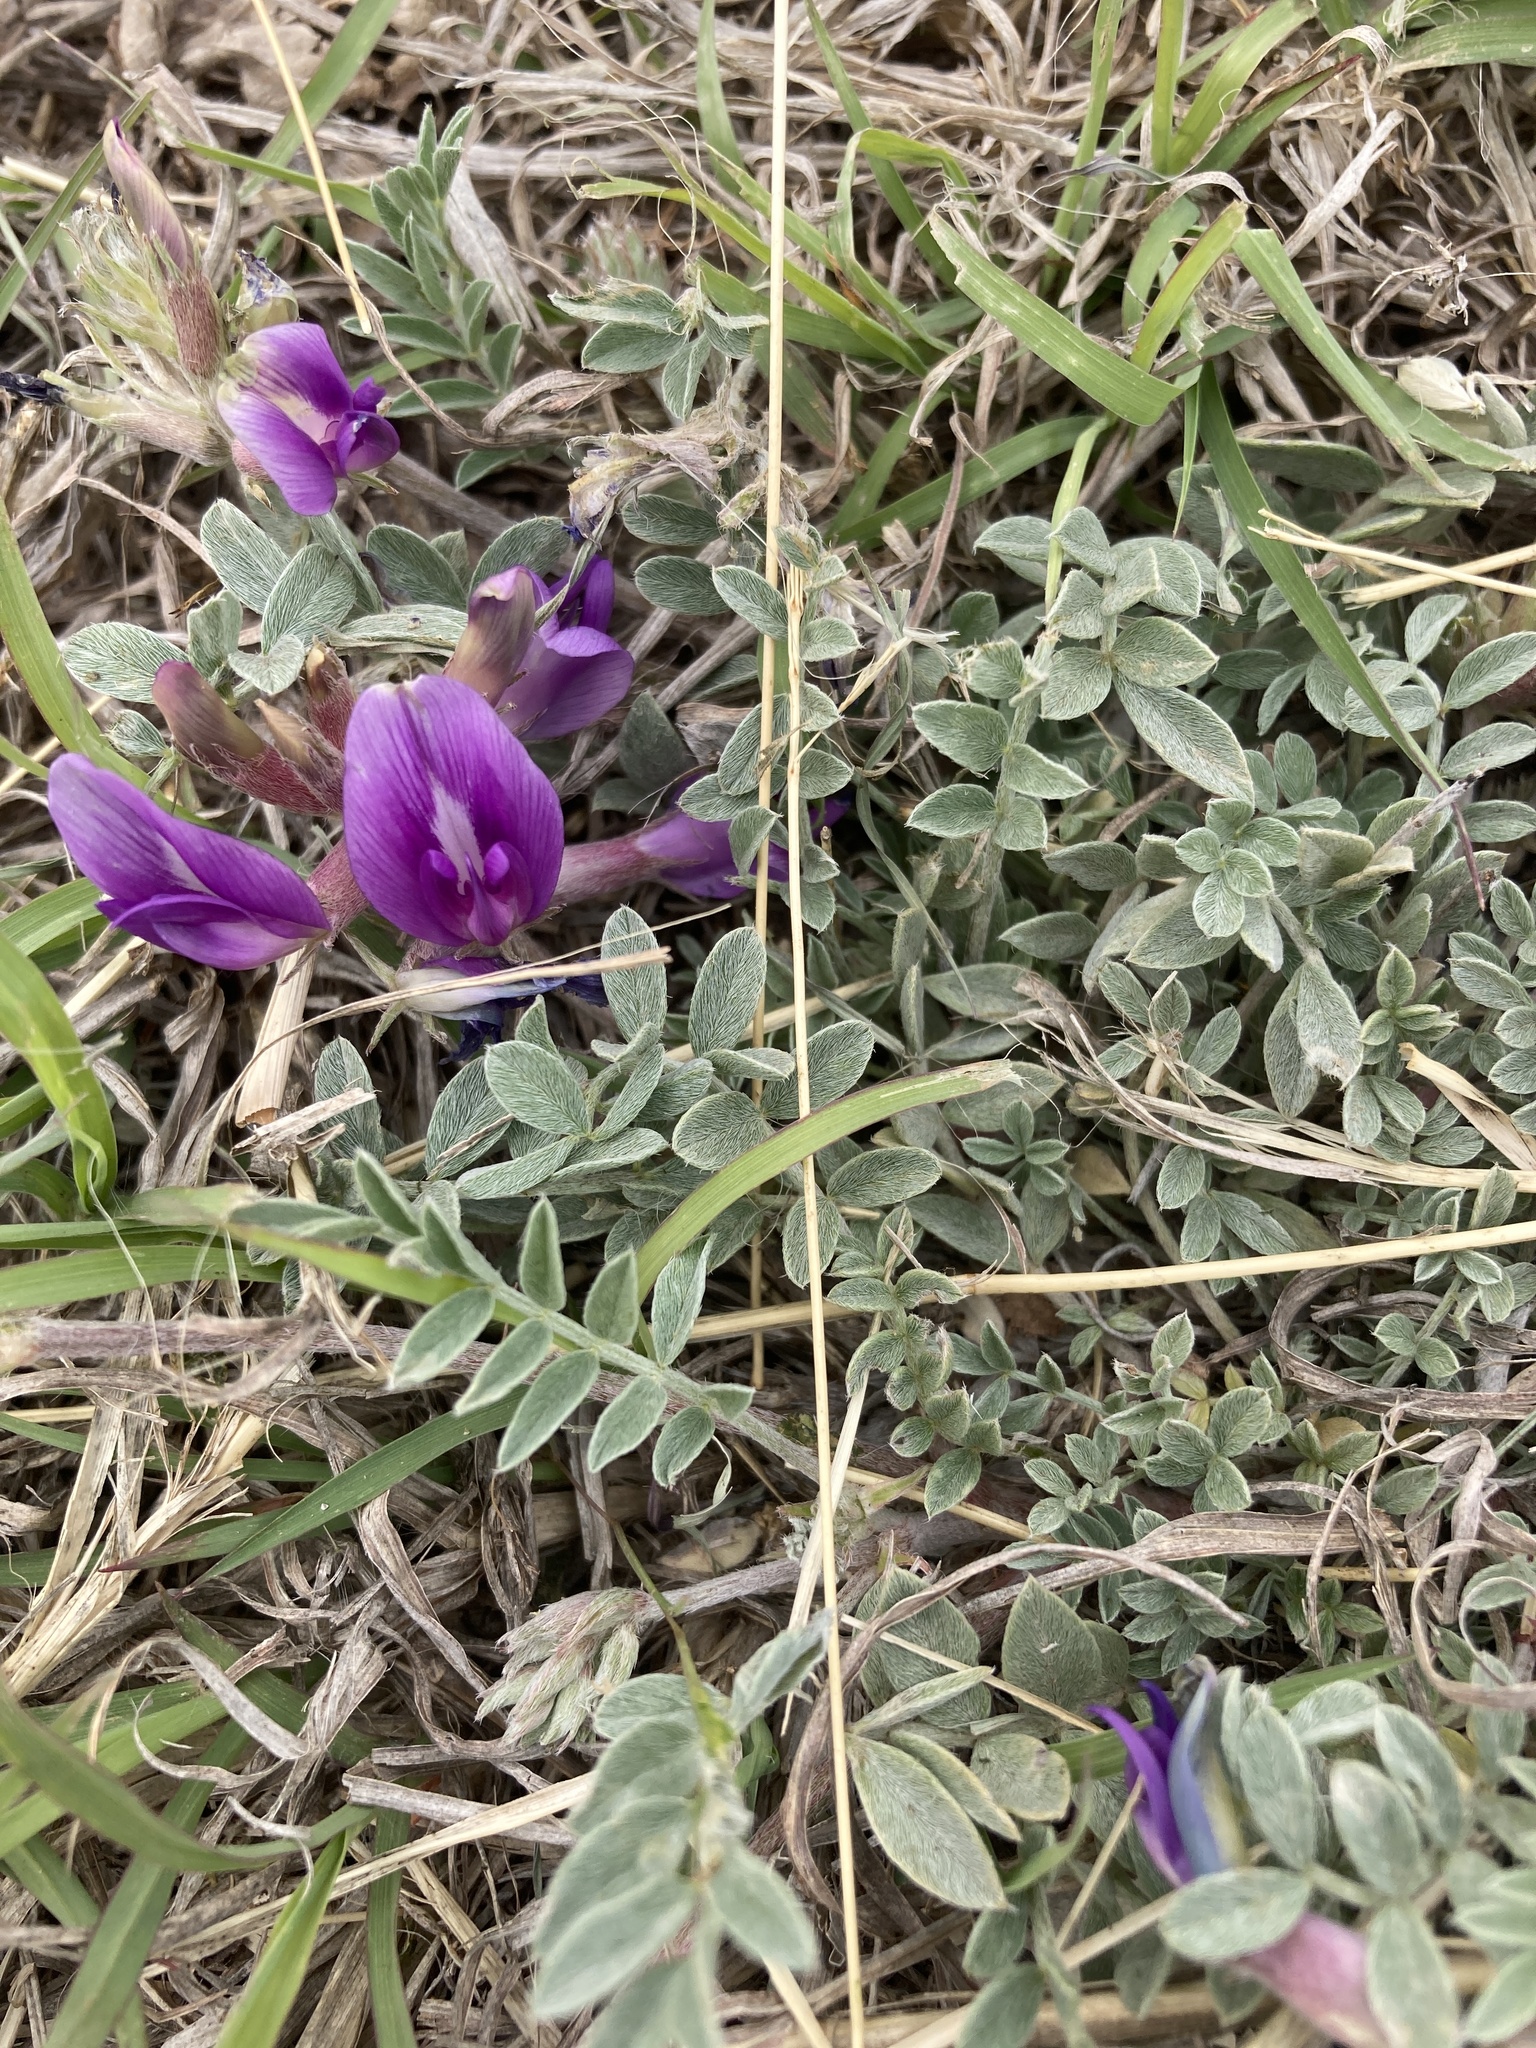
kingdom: Plantae
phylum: Tracheophyta
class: Magnoliopsida
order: Fabales
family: Fabaceae
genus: Astragalus
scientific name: Astragalus missouriensis
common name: Missouri milk-vetch
